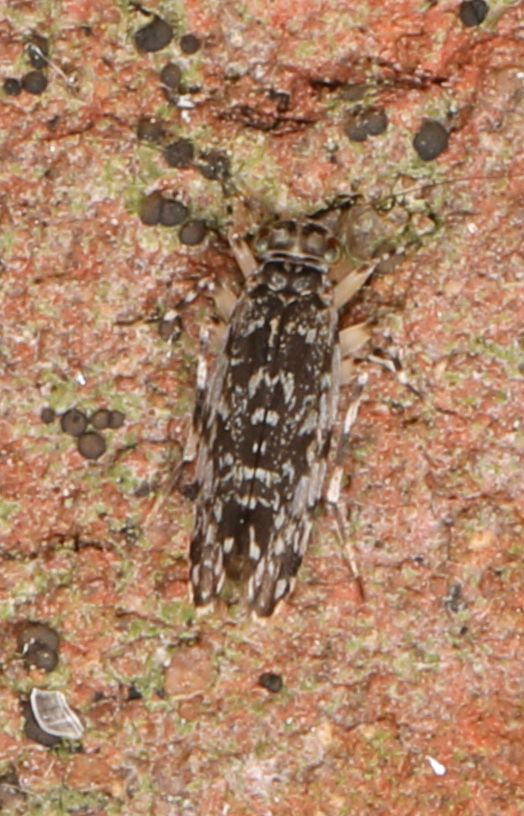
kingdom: Animalia
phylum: Arthropoda
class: Insecta
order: Psocodea
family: Amphientomidae
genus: Stimulopalpus
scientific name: Stimulopalpus japonicus
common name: Tropical bark louse
